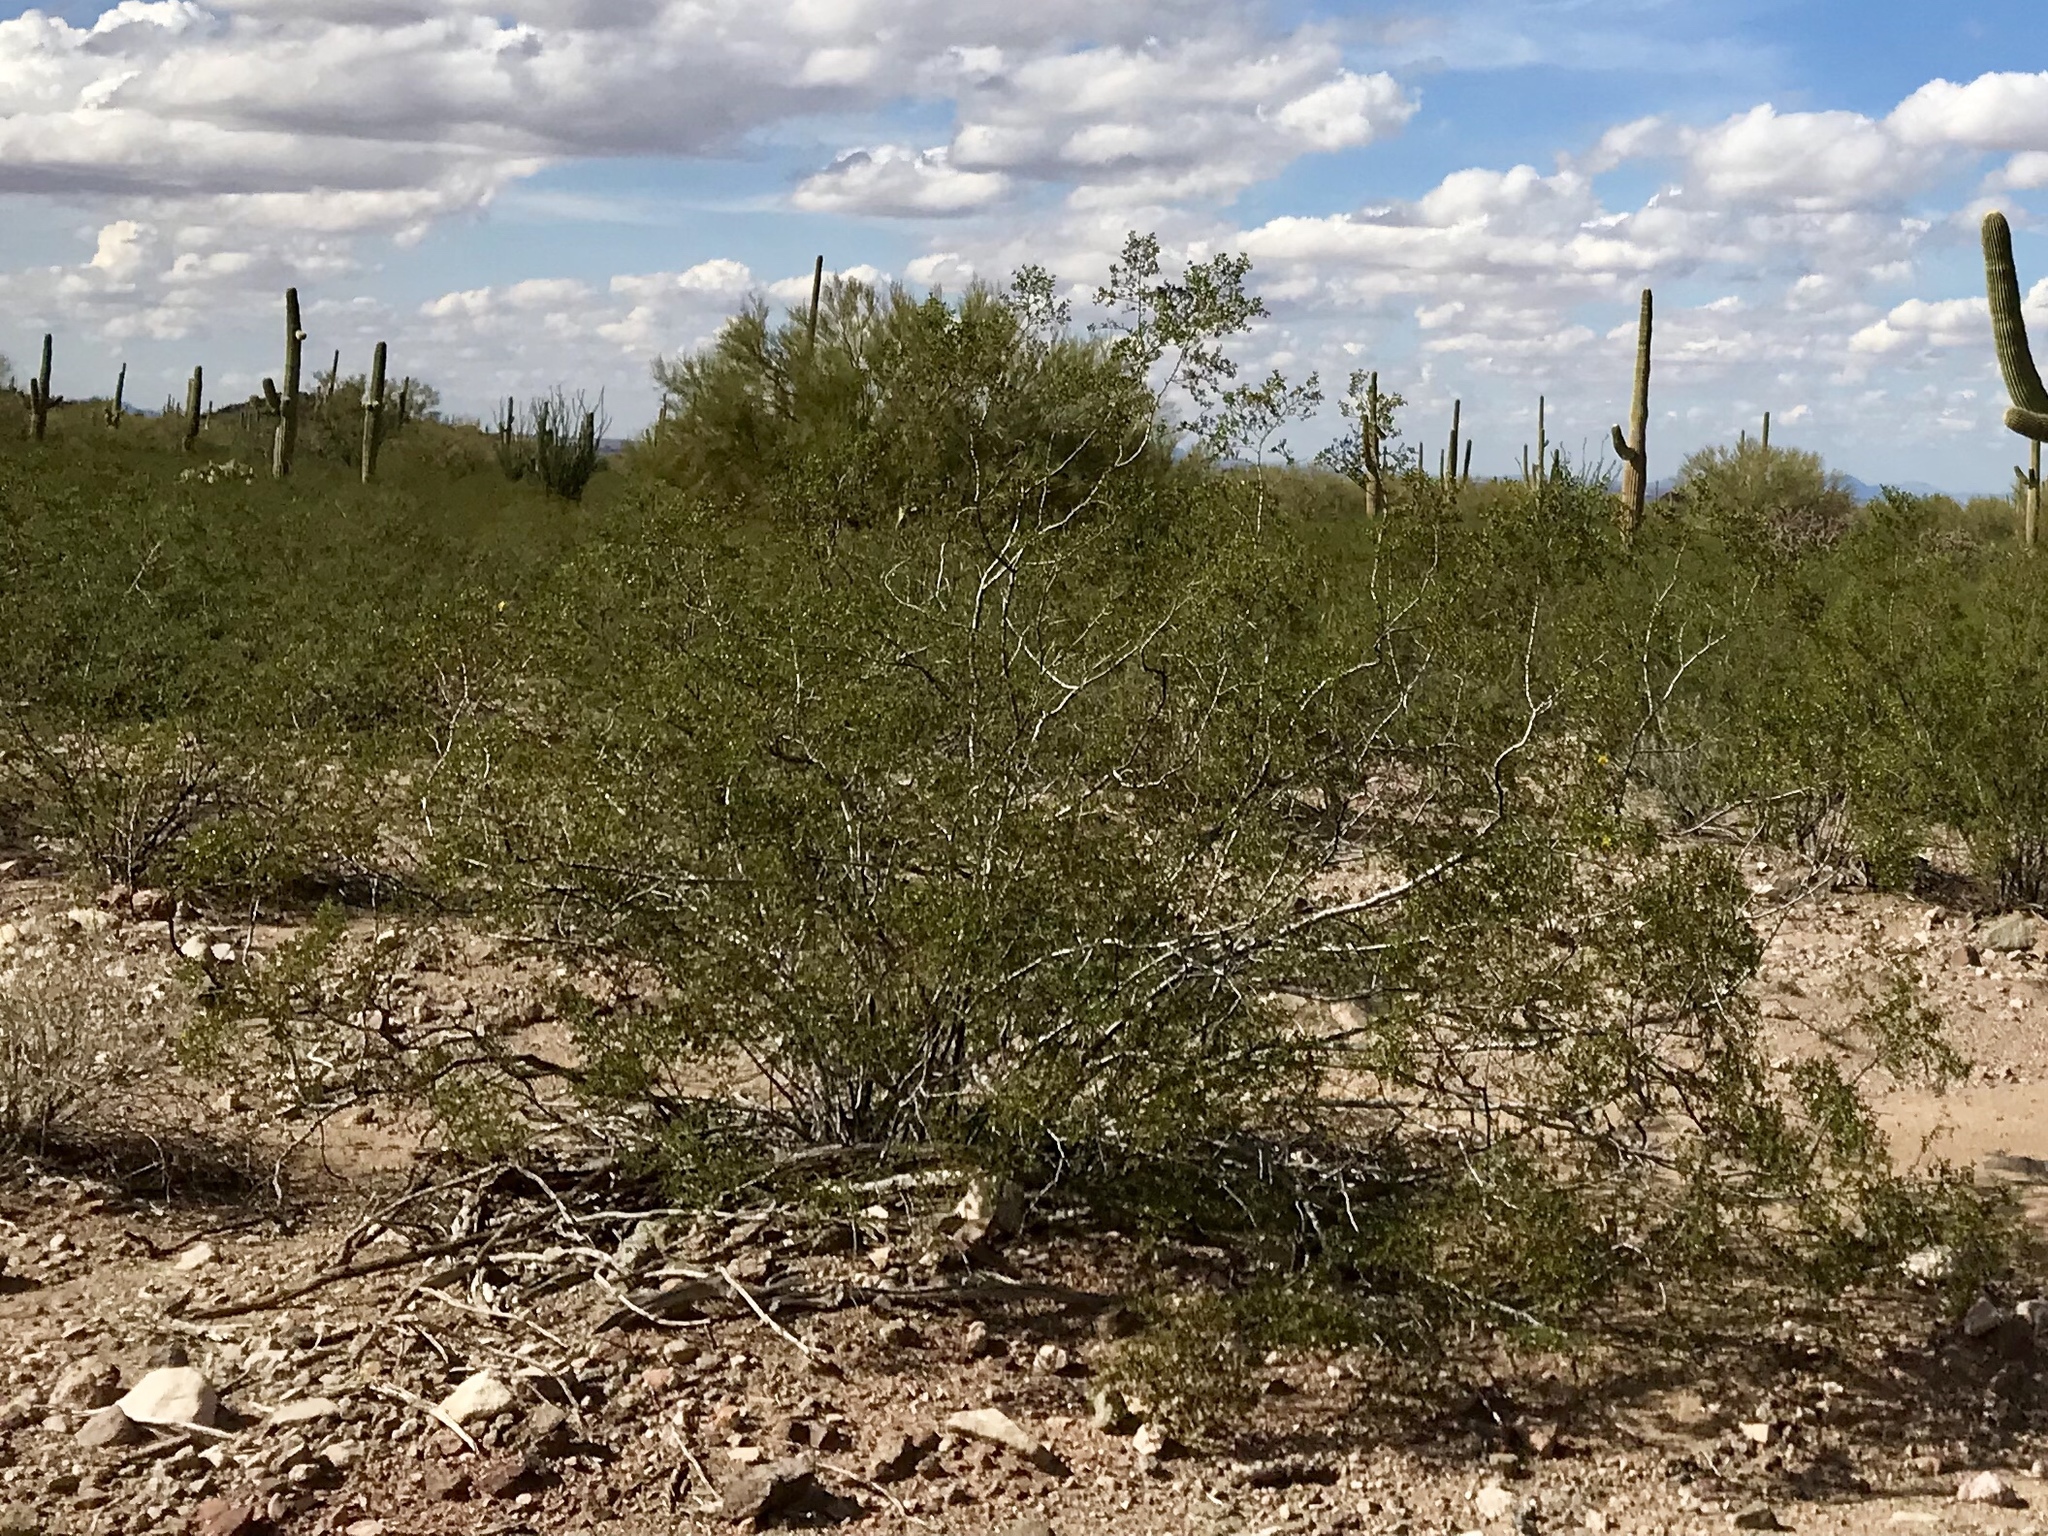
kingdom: Plantae
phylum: Tracheophyta
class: Magnoliopsida
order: Zygophyllales
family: Zygophyllaceae
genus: Larrea
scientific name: Larrea tridentata
